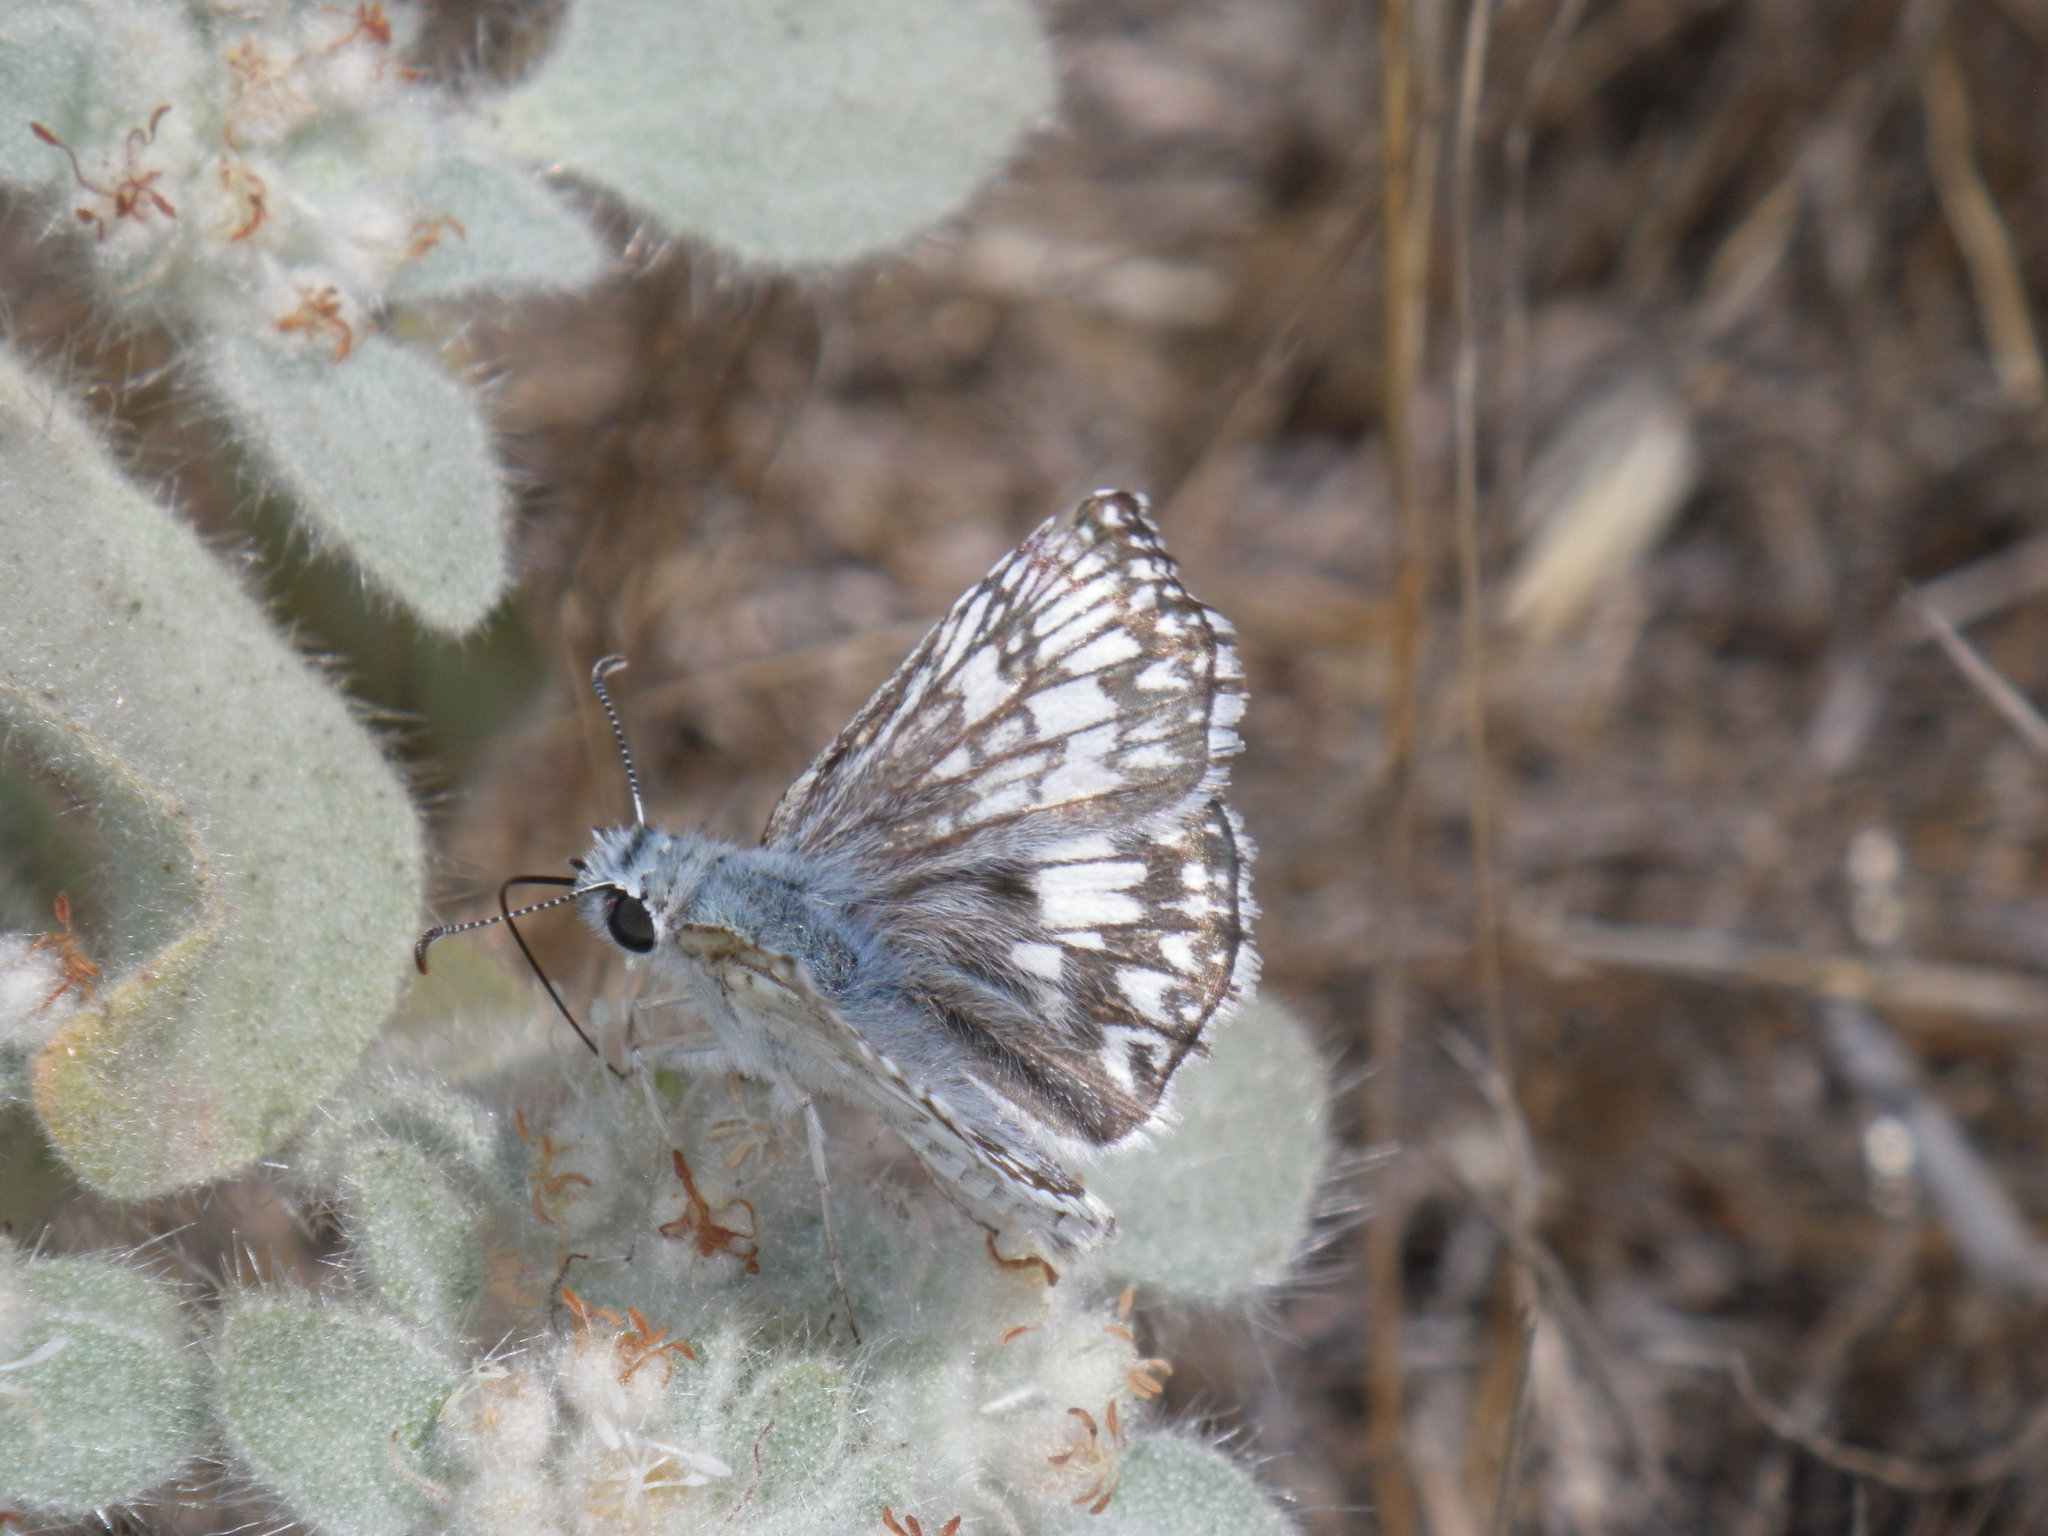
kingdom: Animalia
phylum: Arthropoda
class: Insecta
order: Lepidoptera
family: Hesperiidae
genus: Burnsius
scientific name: Burnsius communis
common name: Common checkered-skipper
